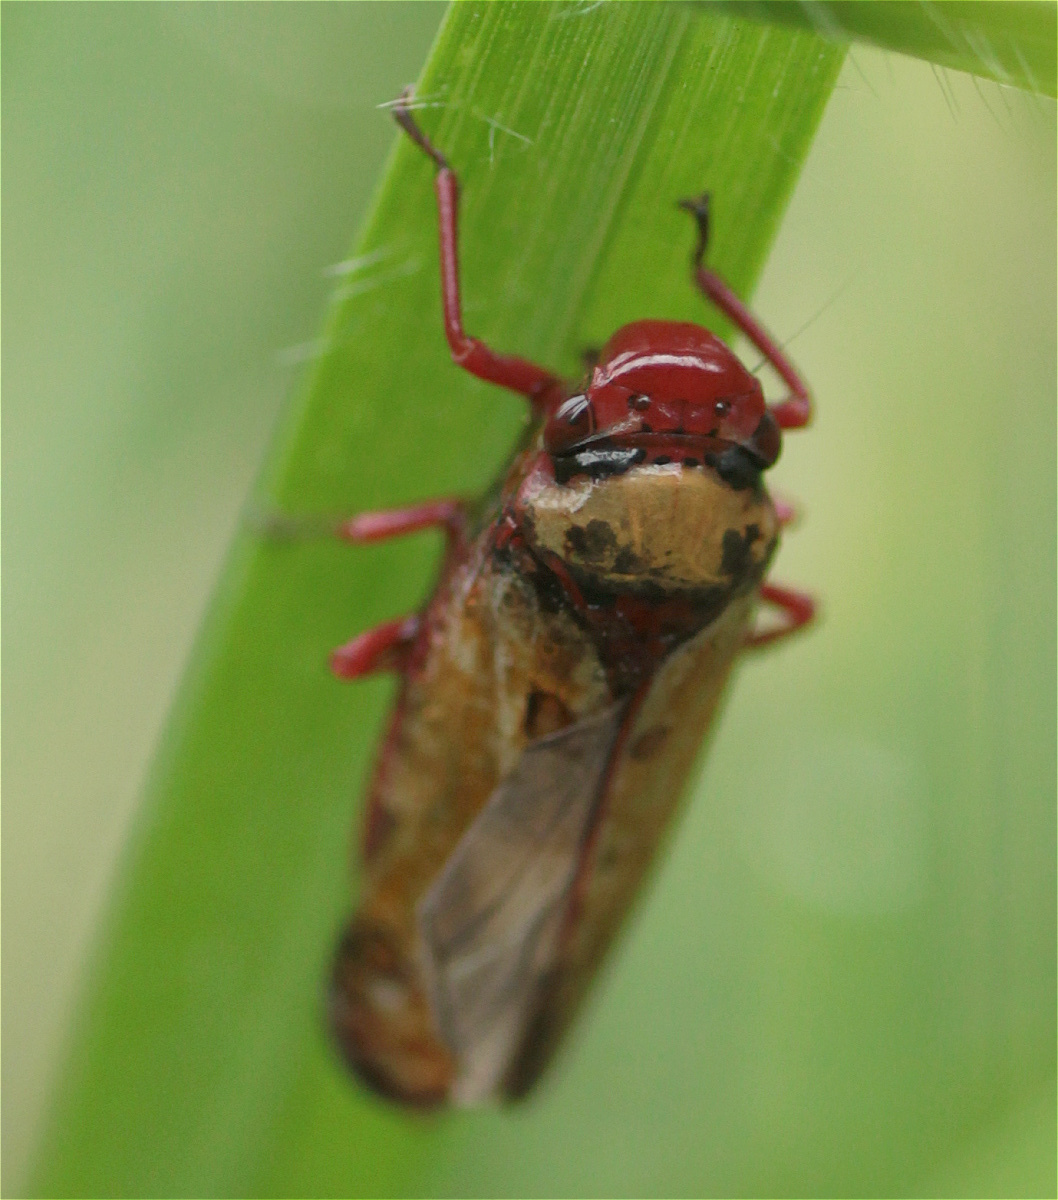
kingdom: Animalia
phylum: Arthropoda
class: Insecta
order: Hemiptera
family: Cicadellidae
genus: Paracatua
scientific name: Paracatua rubrolimbata
